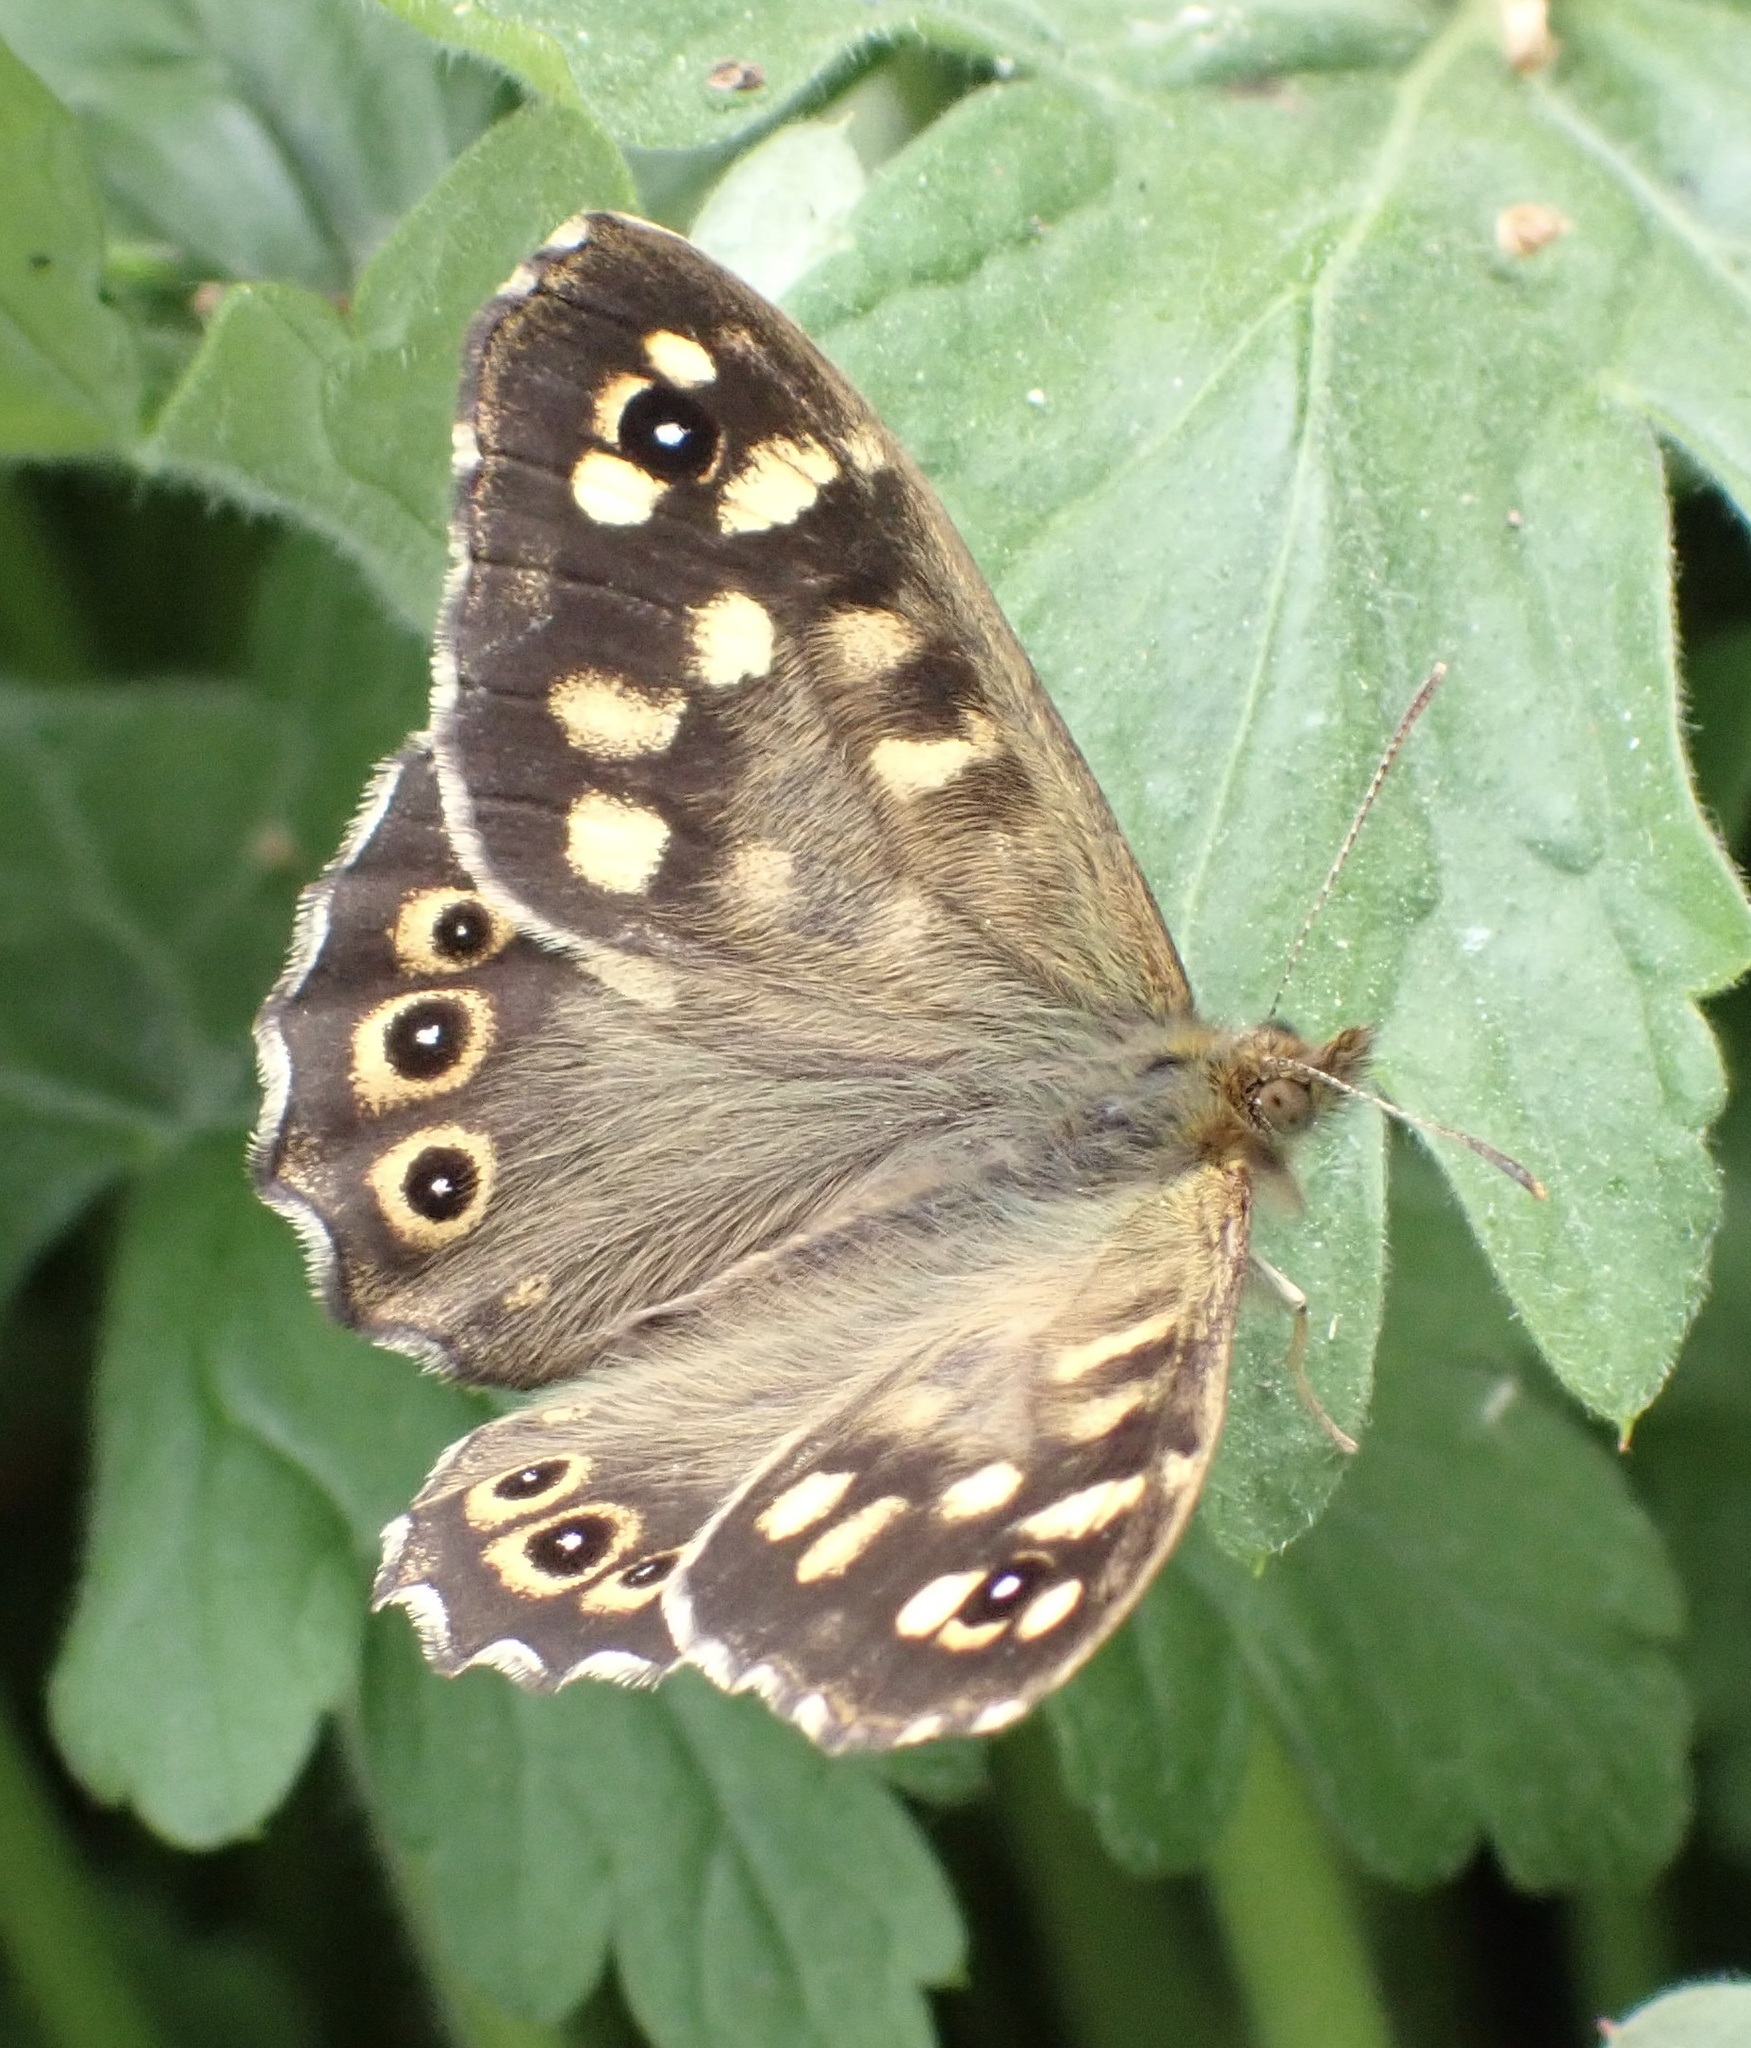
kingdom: Animalia
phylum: Arthropoda
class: Insecta
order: Lepidoptera
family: Nymphalidae
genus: Pararge
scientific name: Pararge aegeria
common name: Speckled wood
